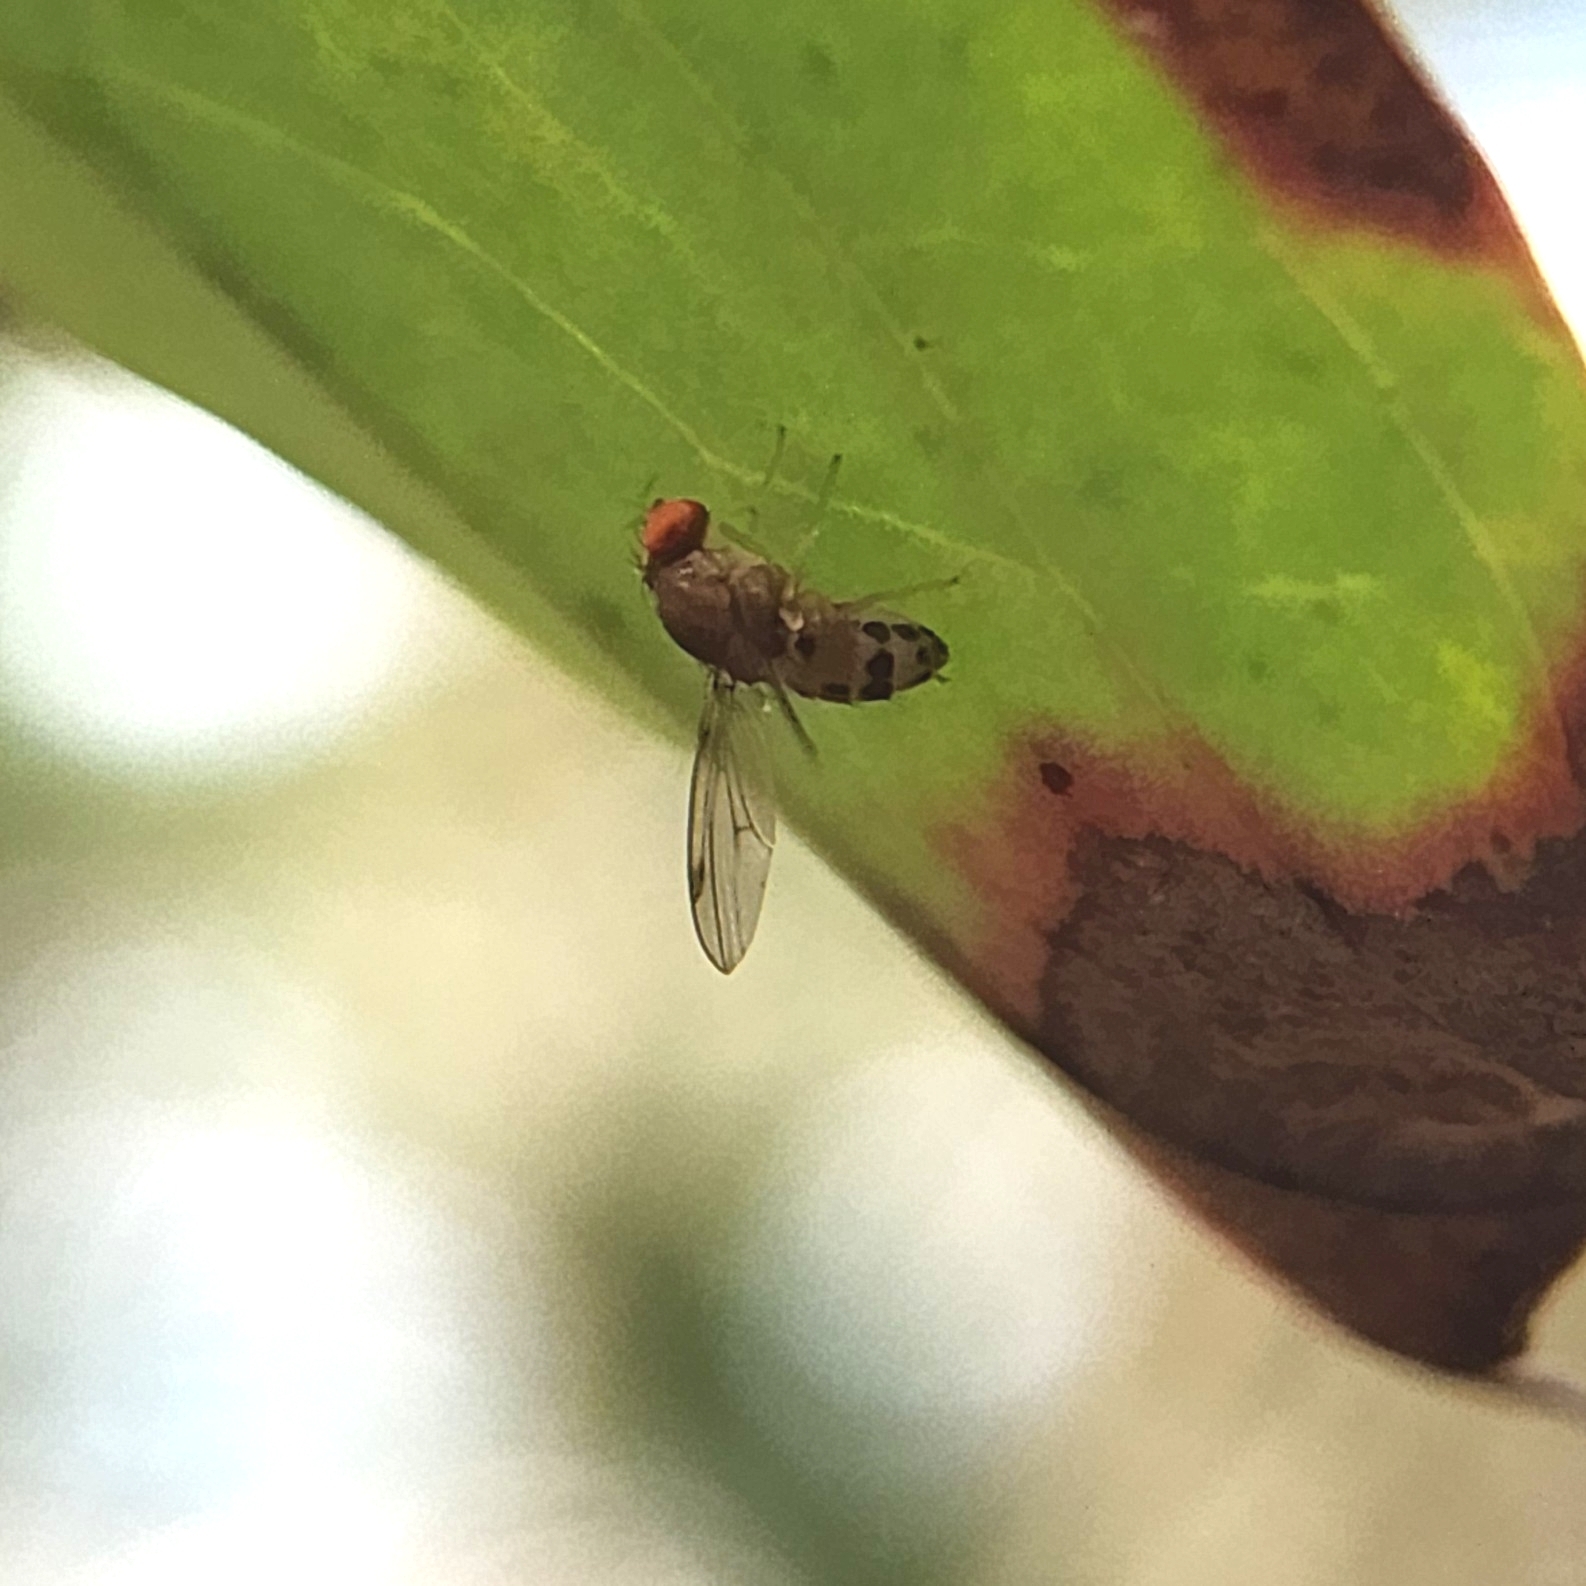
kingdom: Animalia
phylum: Arthropoda
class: Insecta
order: Diptera
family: Drosophilidae
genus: Leucophenga
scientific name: Leucophenga varia
